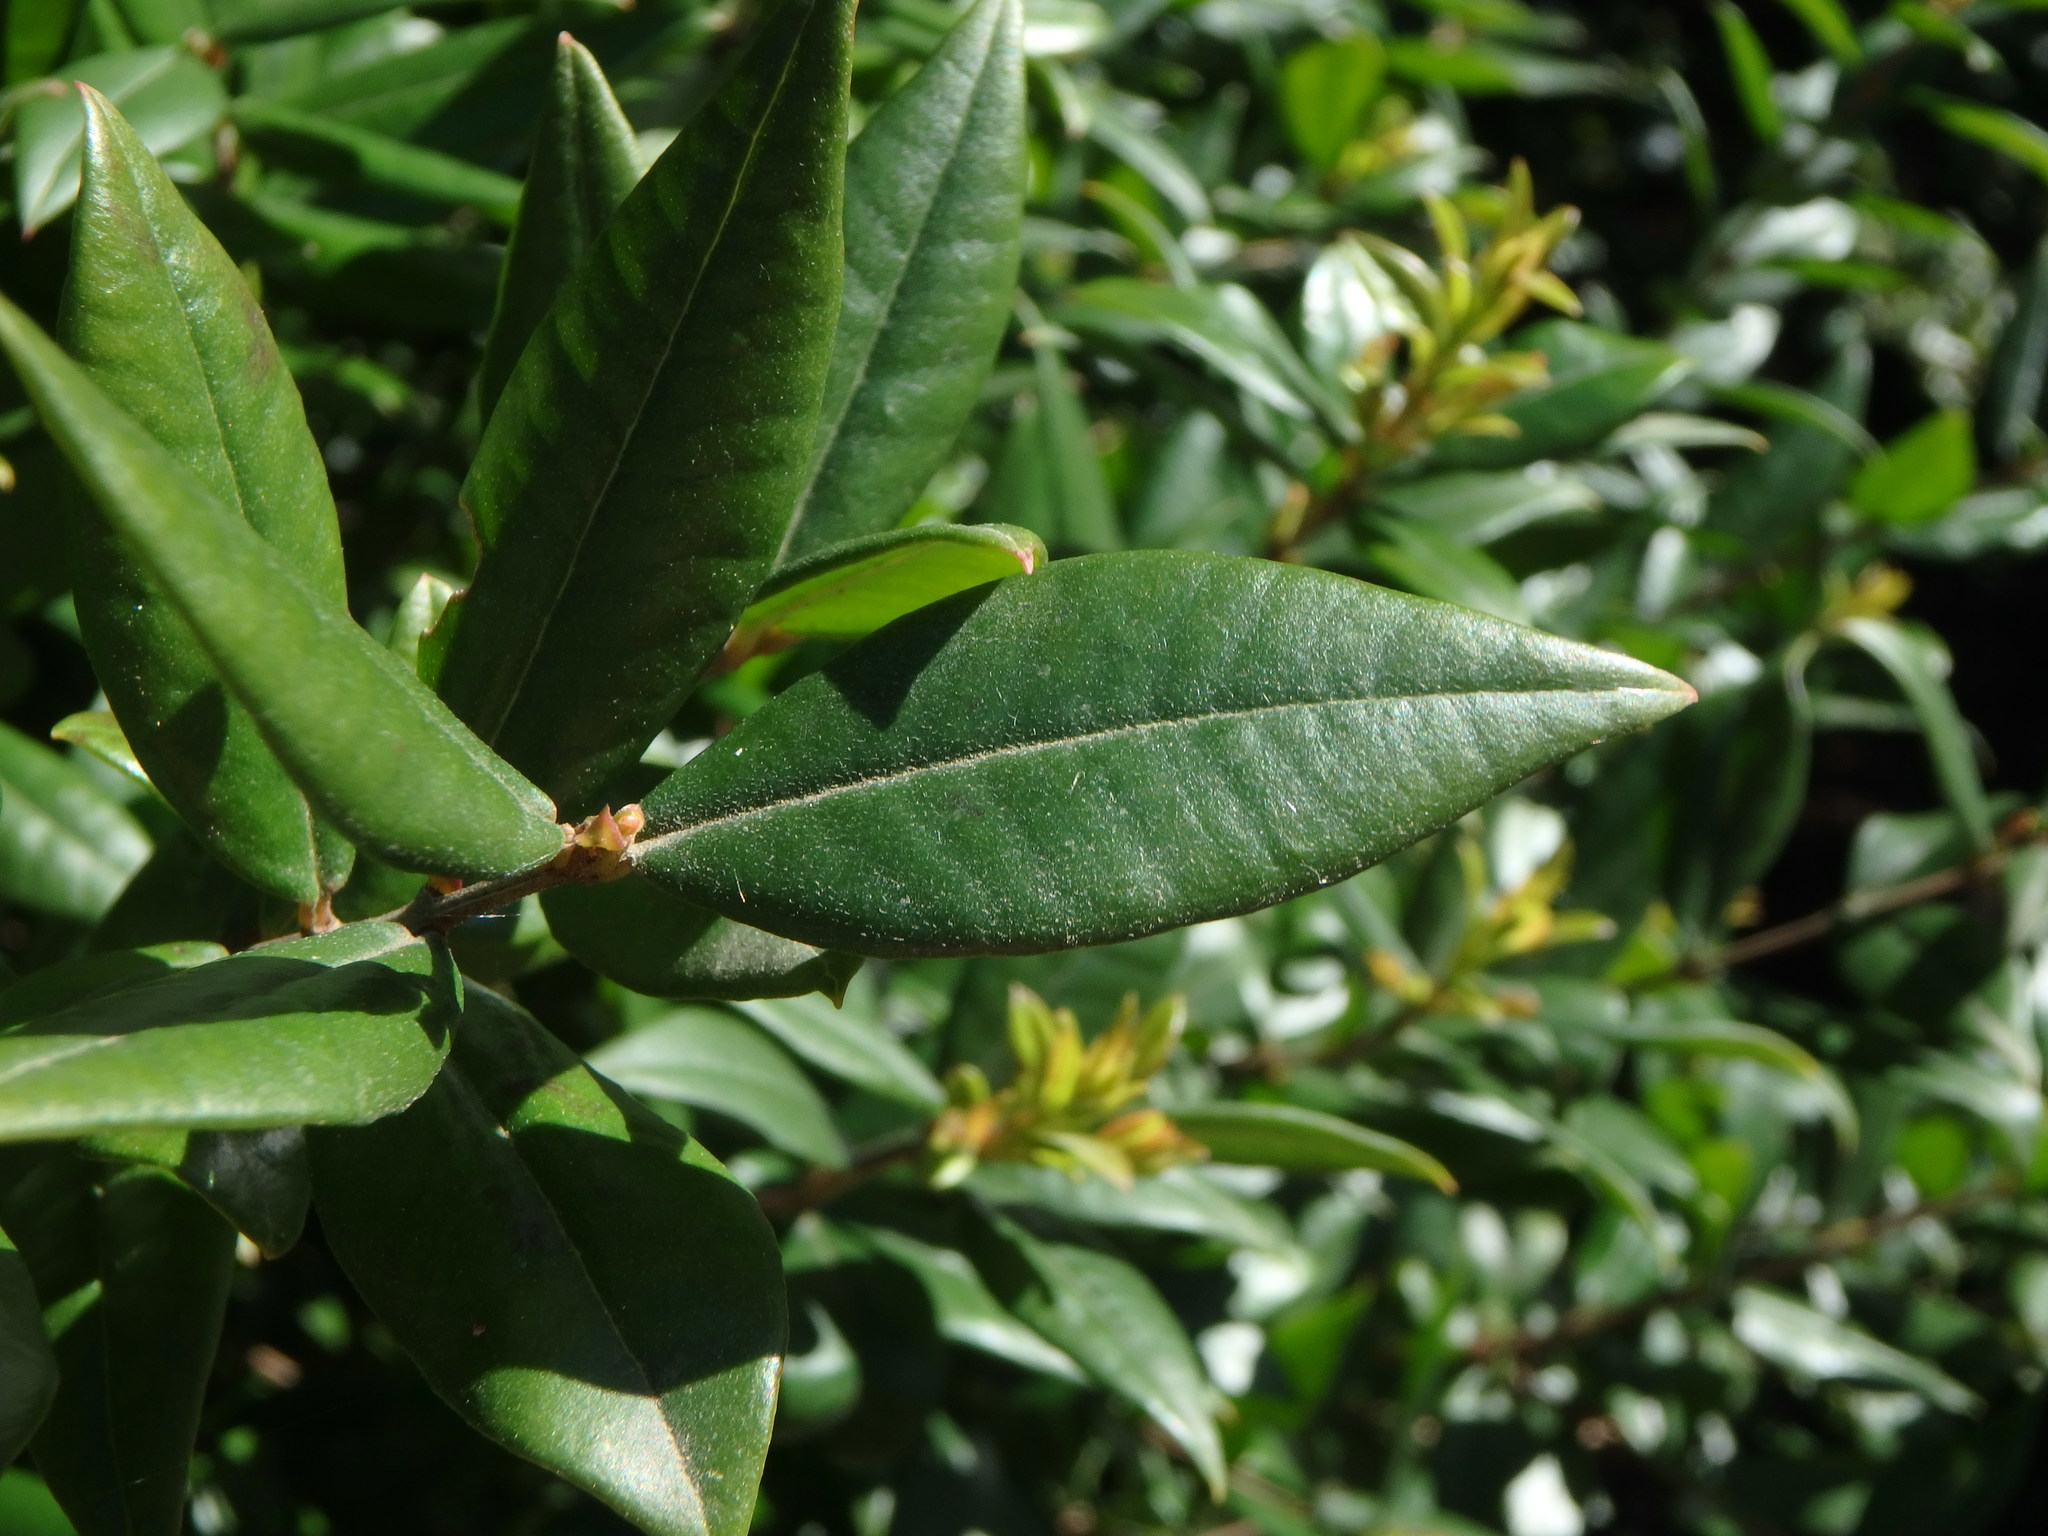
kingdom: Plantae
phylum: Tracheophyta
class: Magnoliopsida
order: Myrtales
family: Myrtaceae
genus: Myrtus
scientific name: Myrtus communis
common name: Myrtle
